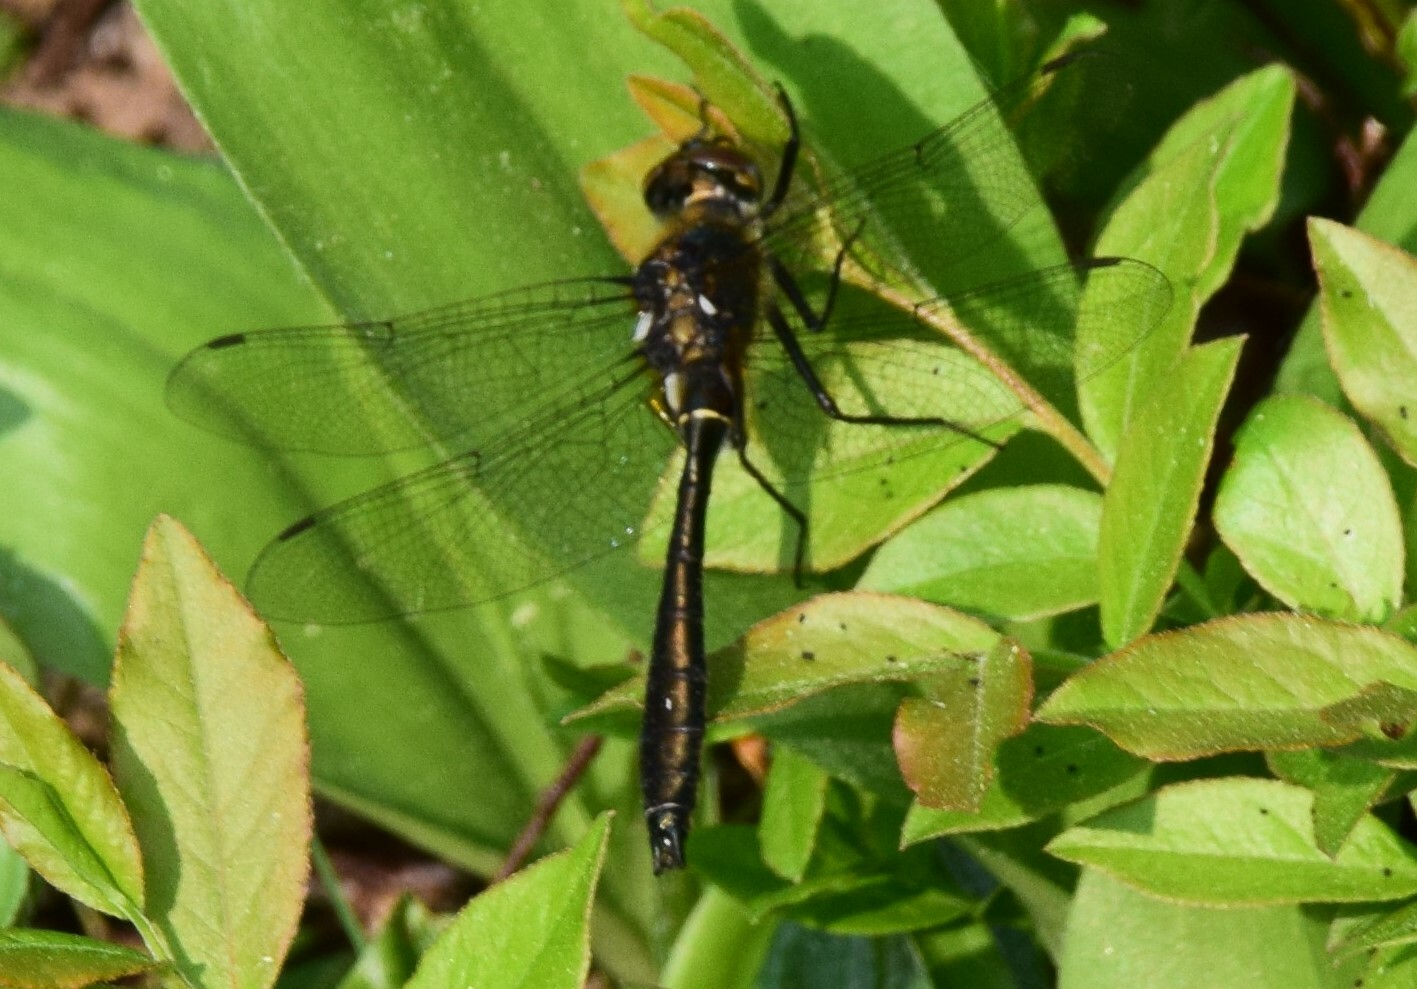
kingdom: Animalia
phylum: Arthropoda
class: Insecta
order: Odonata
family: Corduliidae
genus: Dorocordulia
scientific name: Dorocordulia libera
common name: Racket-tailed emerald
